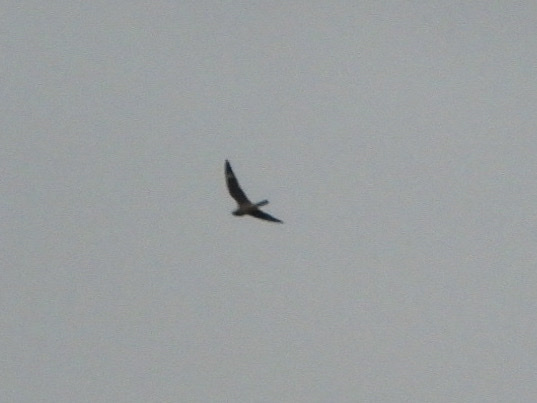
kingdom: Animalia
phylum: Chordata
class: Aves
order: Caprimulgiformes
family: Caprimulgidae
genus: Chordeiles
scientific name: Chordeiles minor
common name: Common nighthawk
